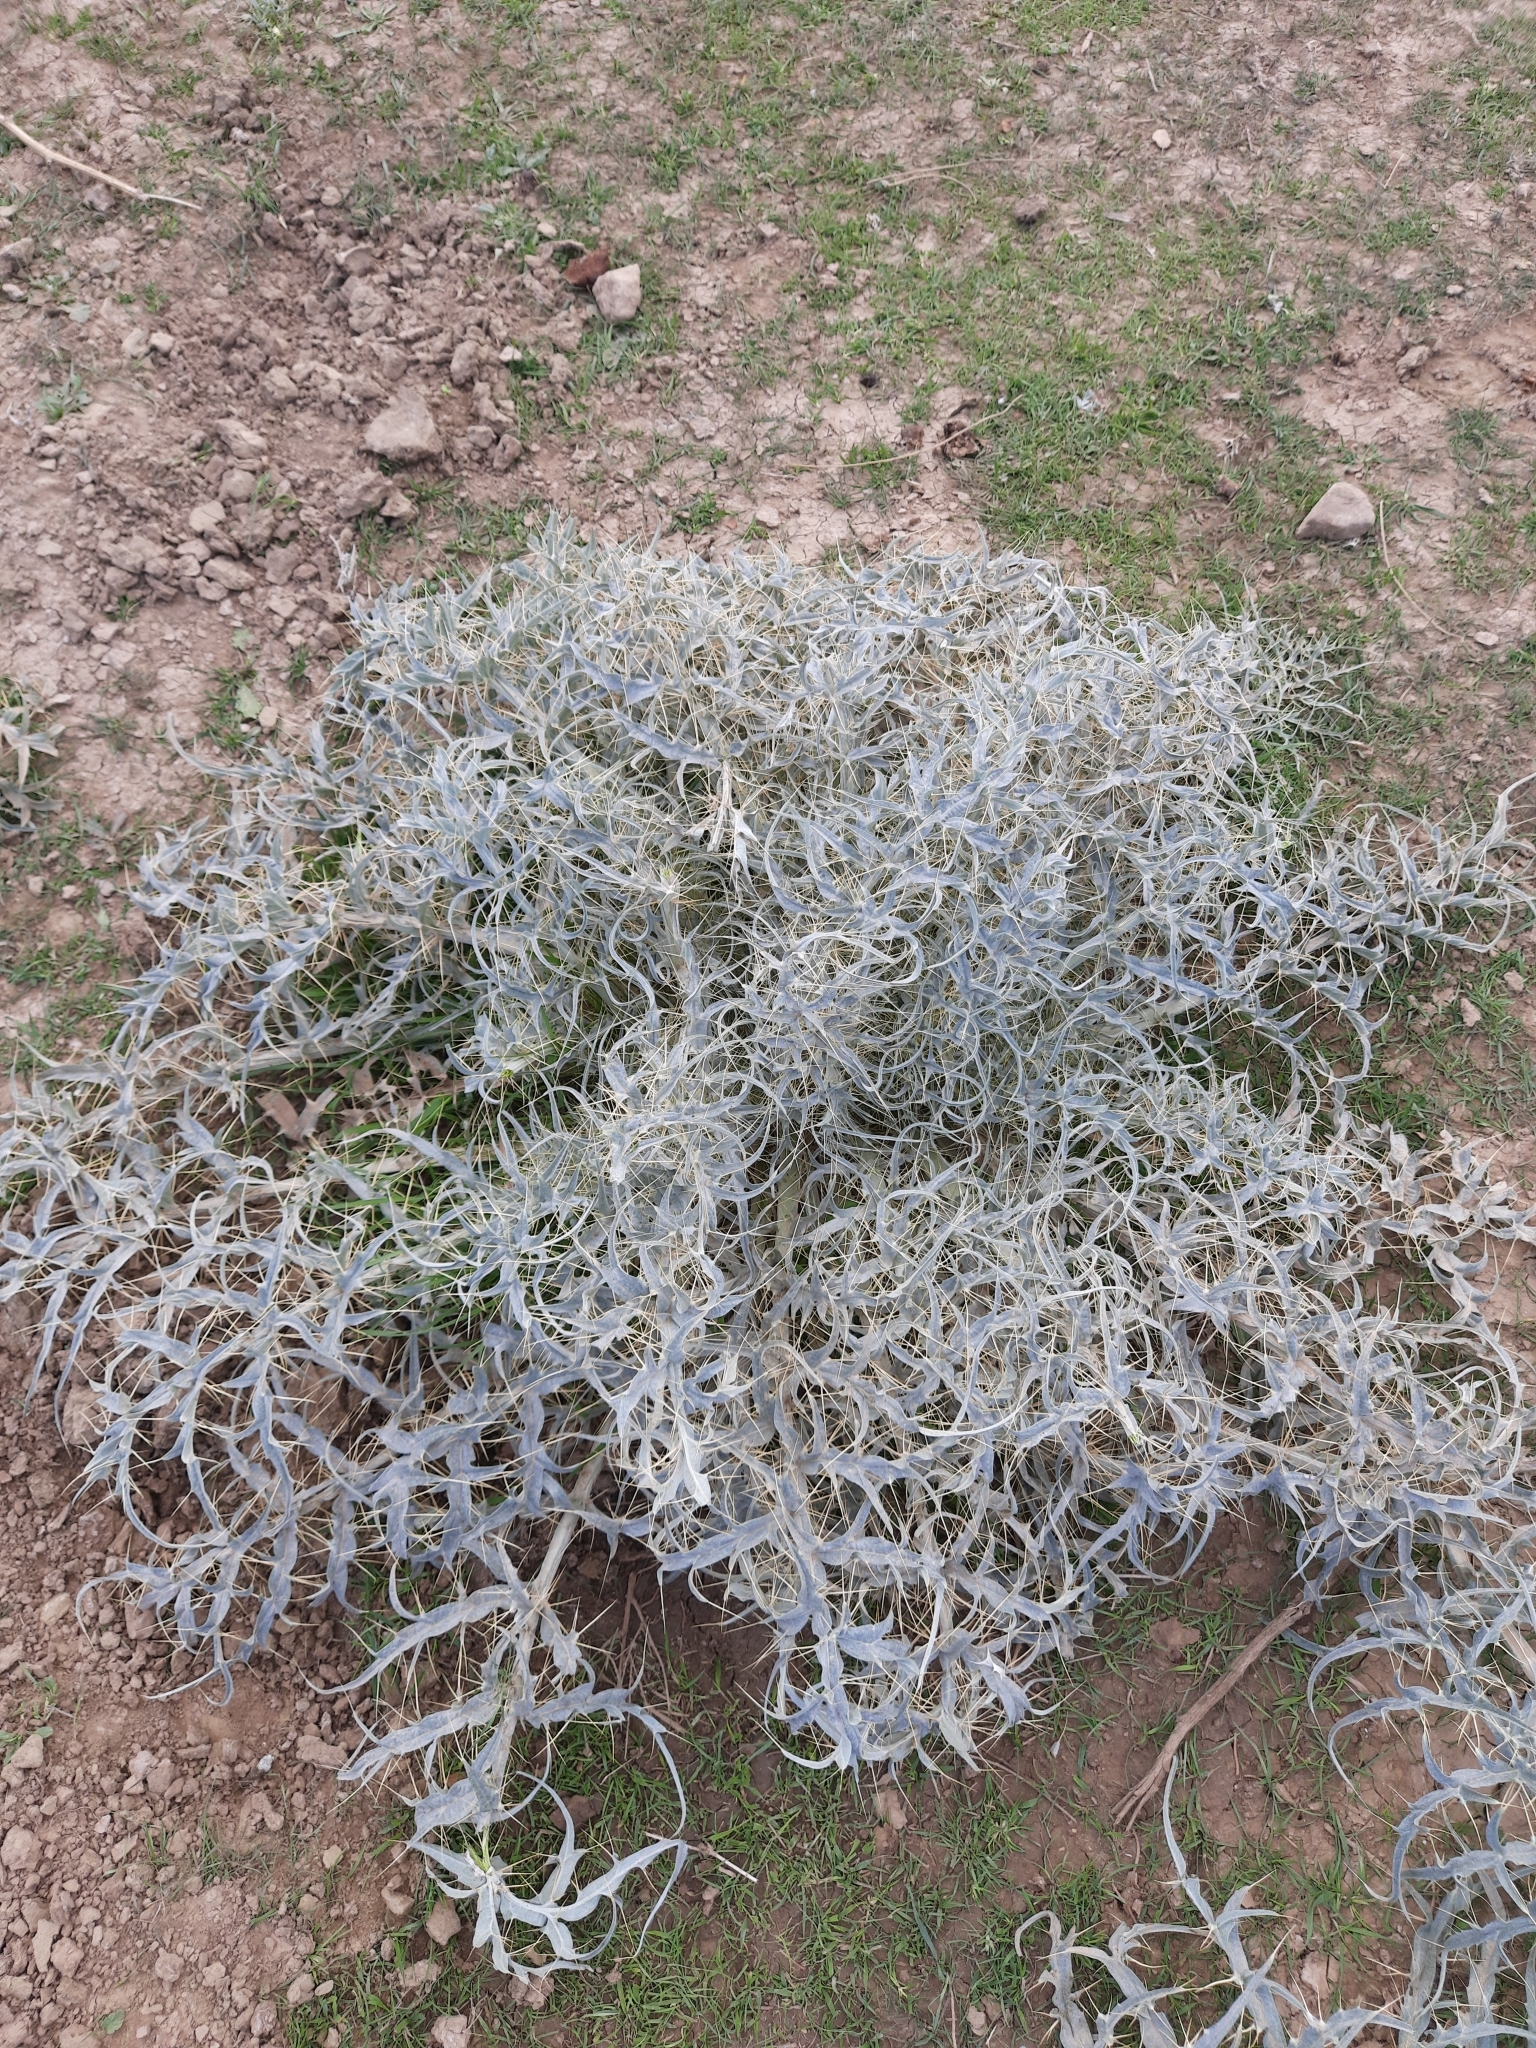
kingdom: Plantae
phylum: Tracheophyta
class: Magnoliopsida
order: Asterales
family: Asteraceae
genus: Cynara
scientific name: Cynara cardunculus
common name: Globe artichoke
